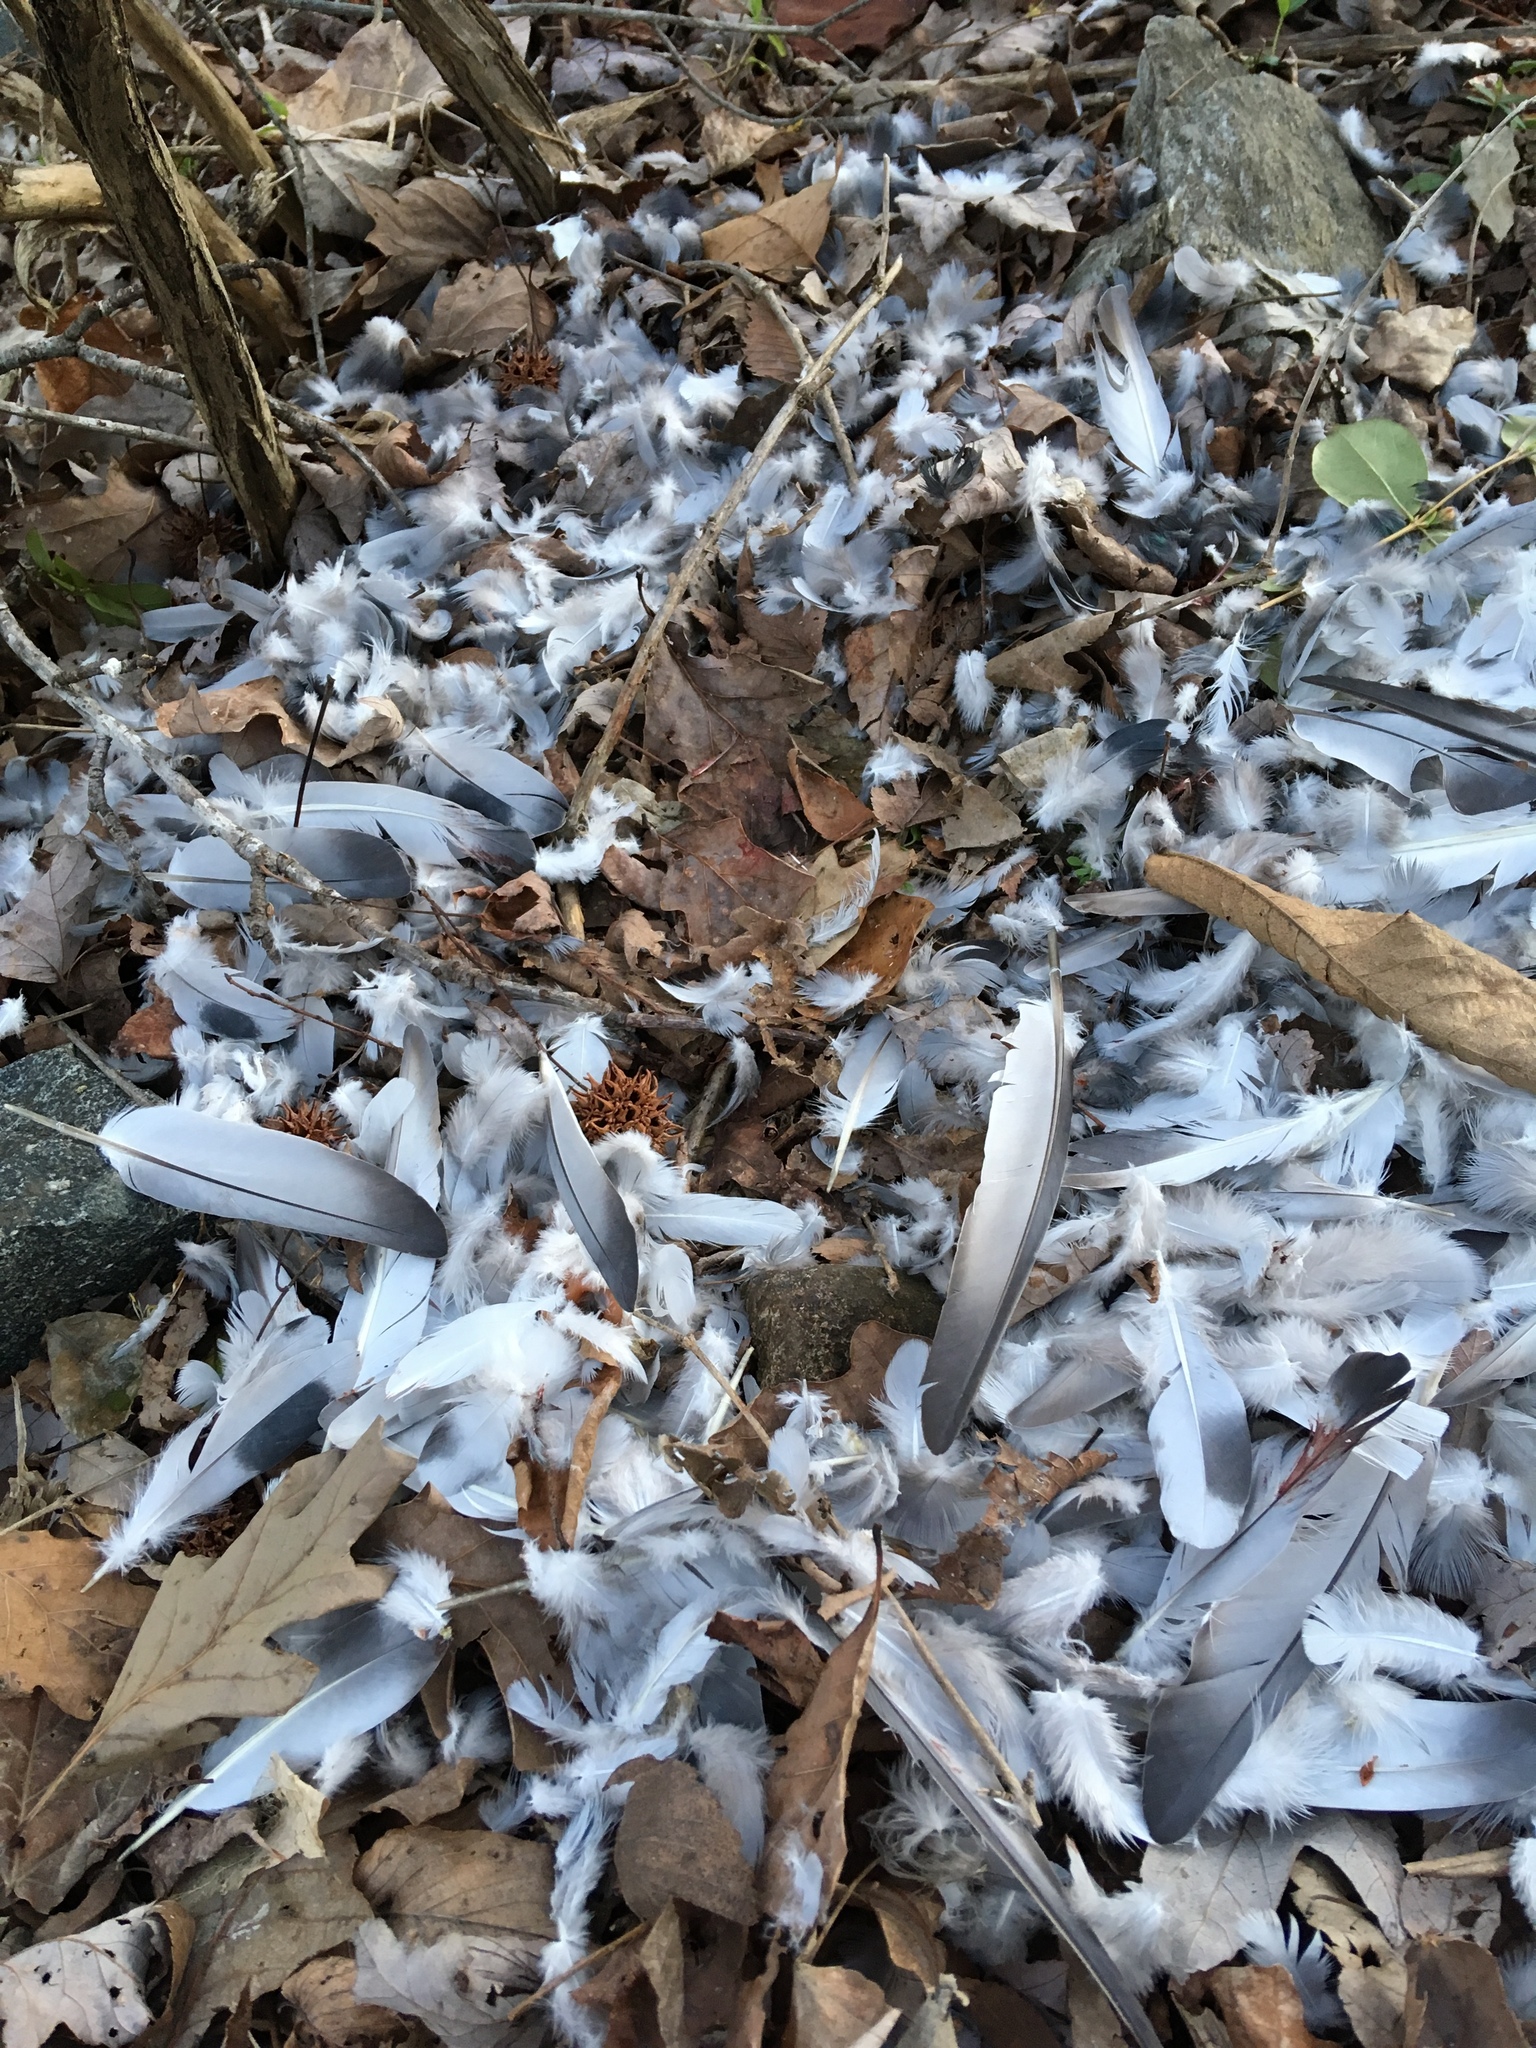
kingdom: Animalia
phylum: Chordata
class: Aves
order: Columbiformes
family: Columbidae
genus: Columba
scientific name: Columba livia
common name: Rock pigeon
